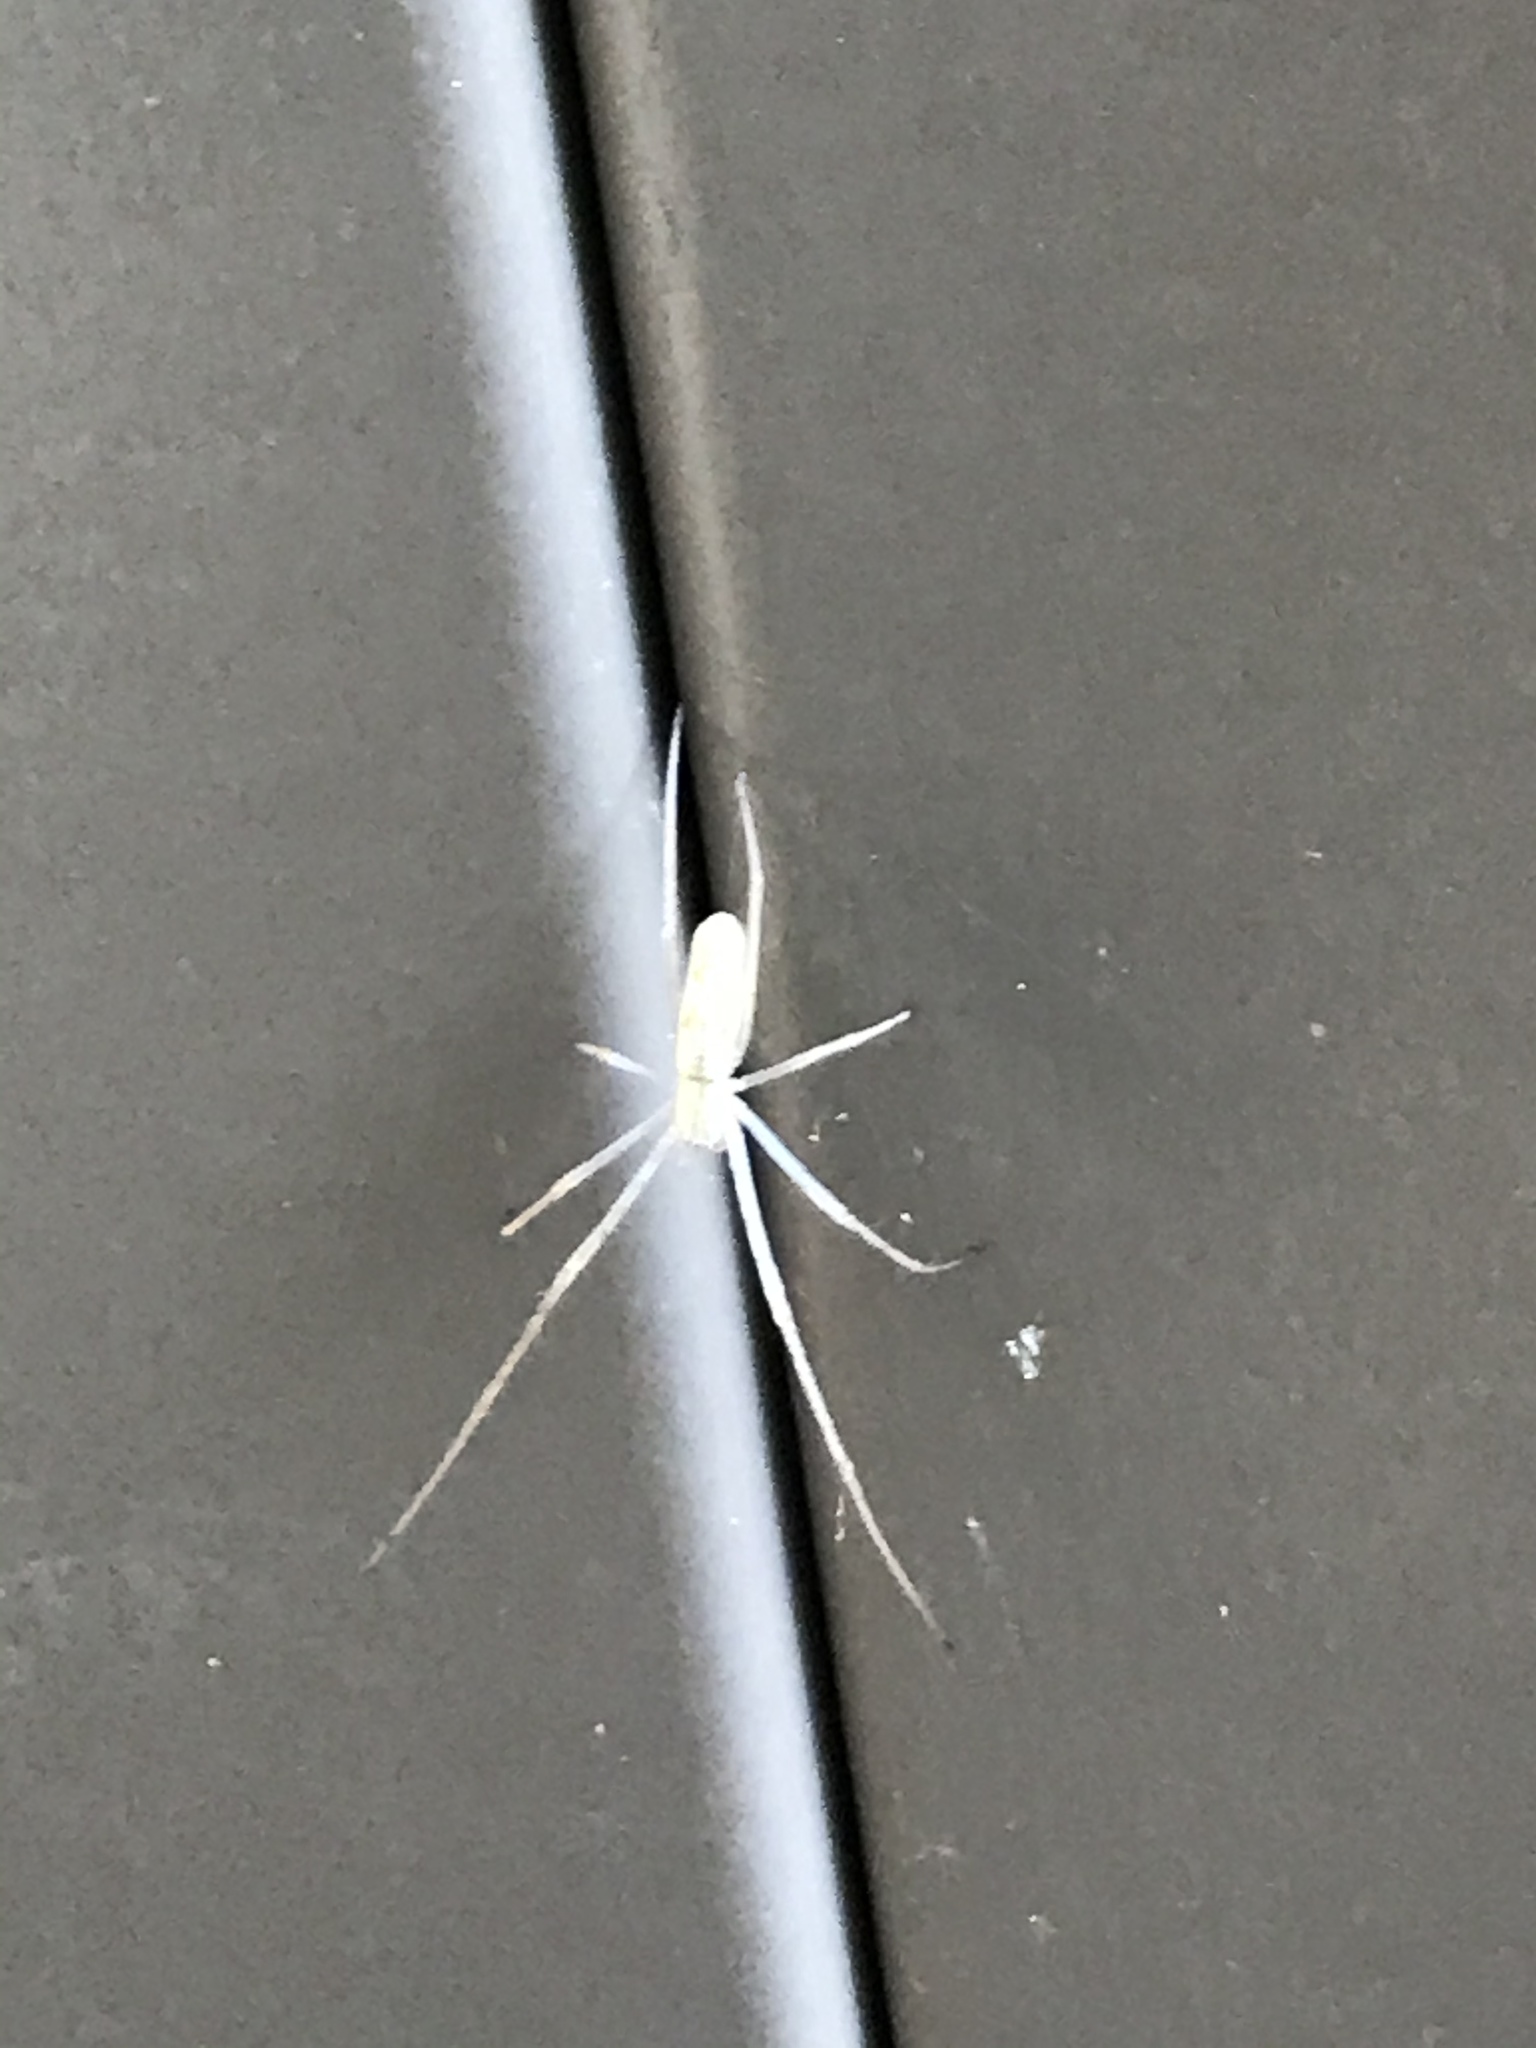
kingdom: Animalia
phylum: Arthropoda
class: Arachnida
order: Araneae
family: Tetragnathidae
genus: Tetragnatha
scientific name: Tetragnatha
